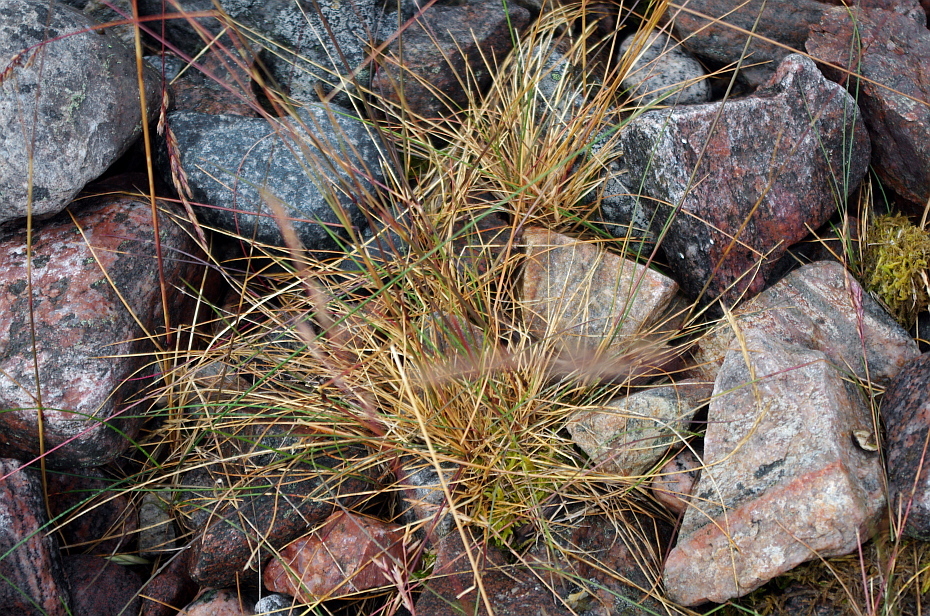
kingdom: Plantae
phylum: Tracheophyta
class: Liliopsida
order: Poales
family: Poaceae
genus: Festuca
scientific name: Festuca rubra
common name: Red fescue
